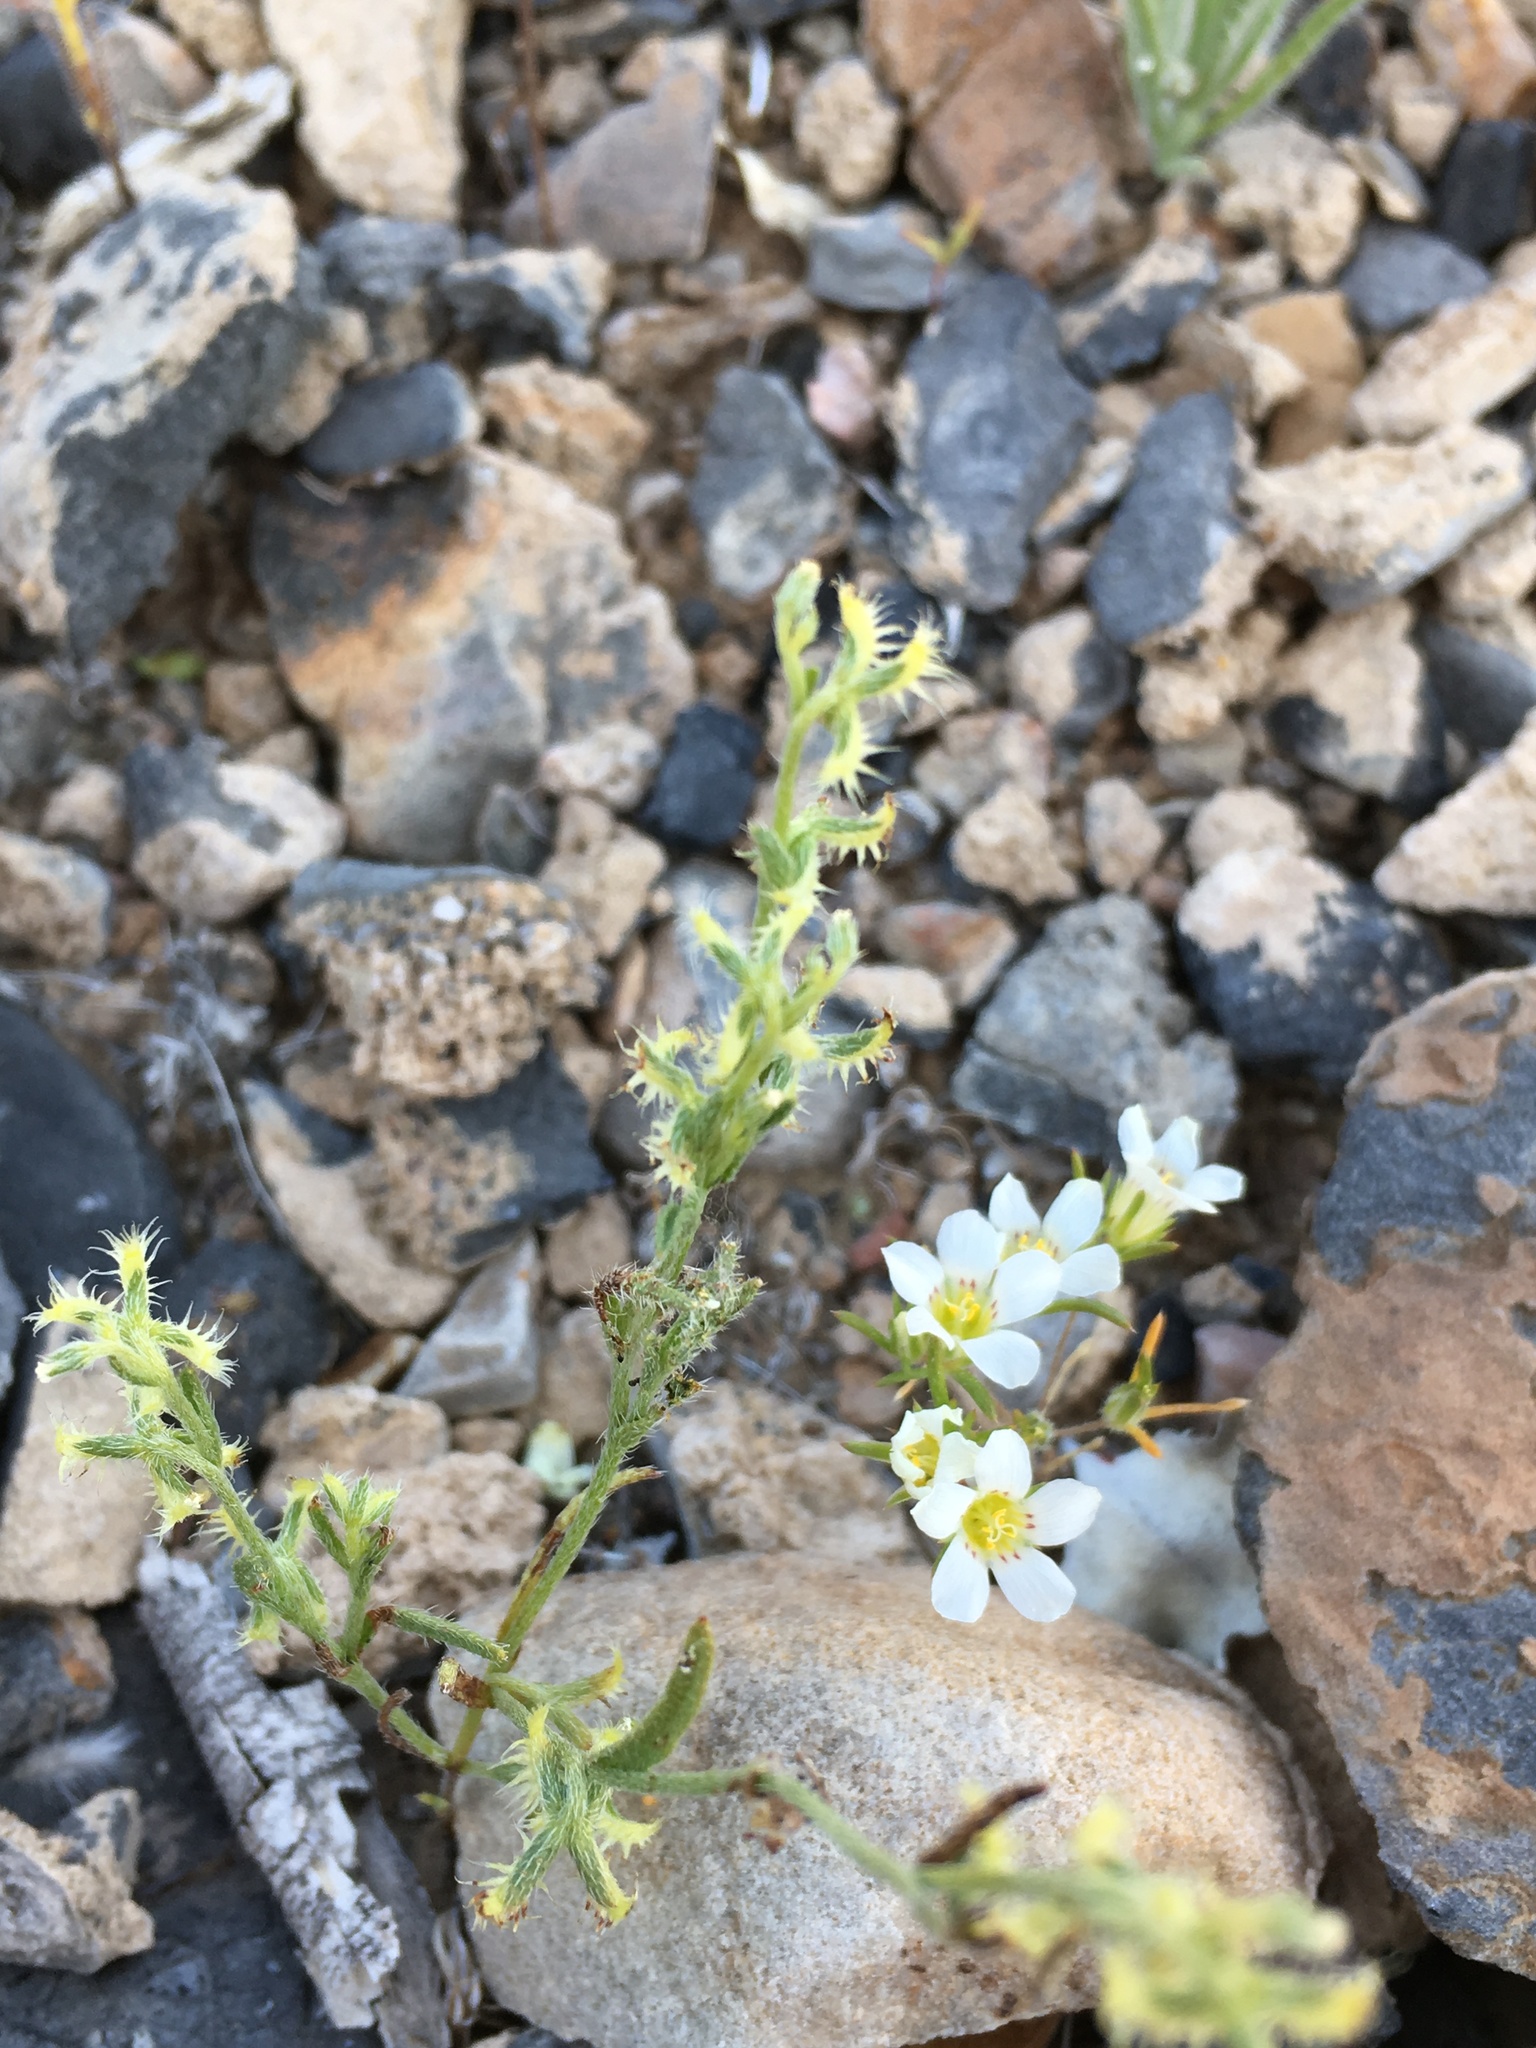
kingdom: Plantae
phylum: Tracheophyta
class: Magnoliopsida
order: Boraginales
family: Boraginaceae
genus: Pectocarya
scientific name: Pectocarya platycarpa
